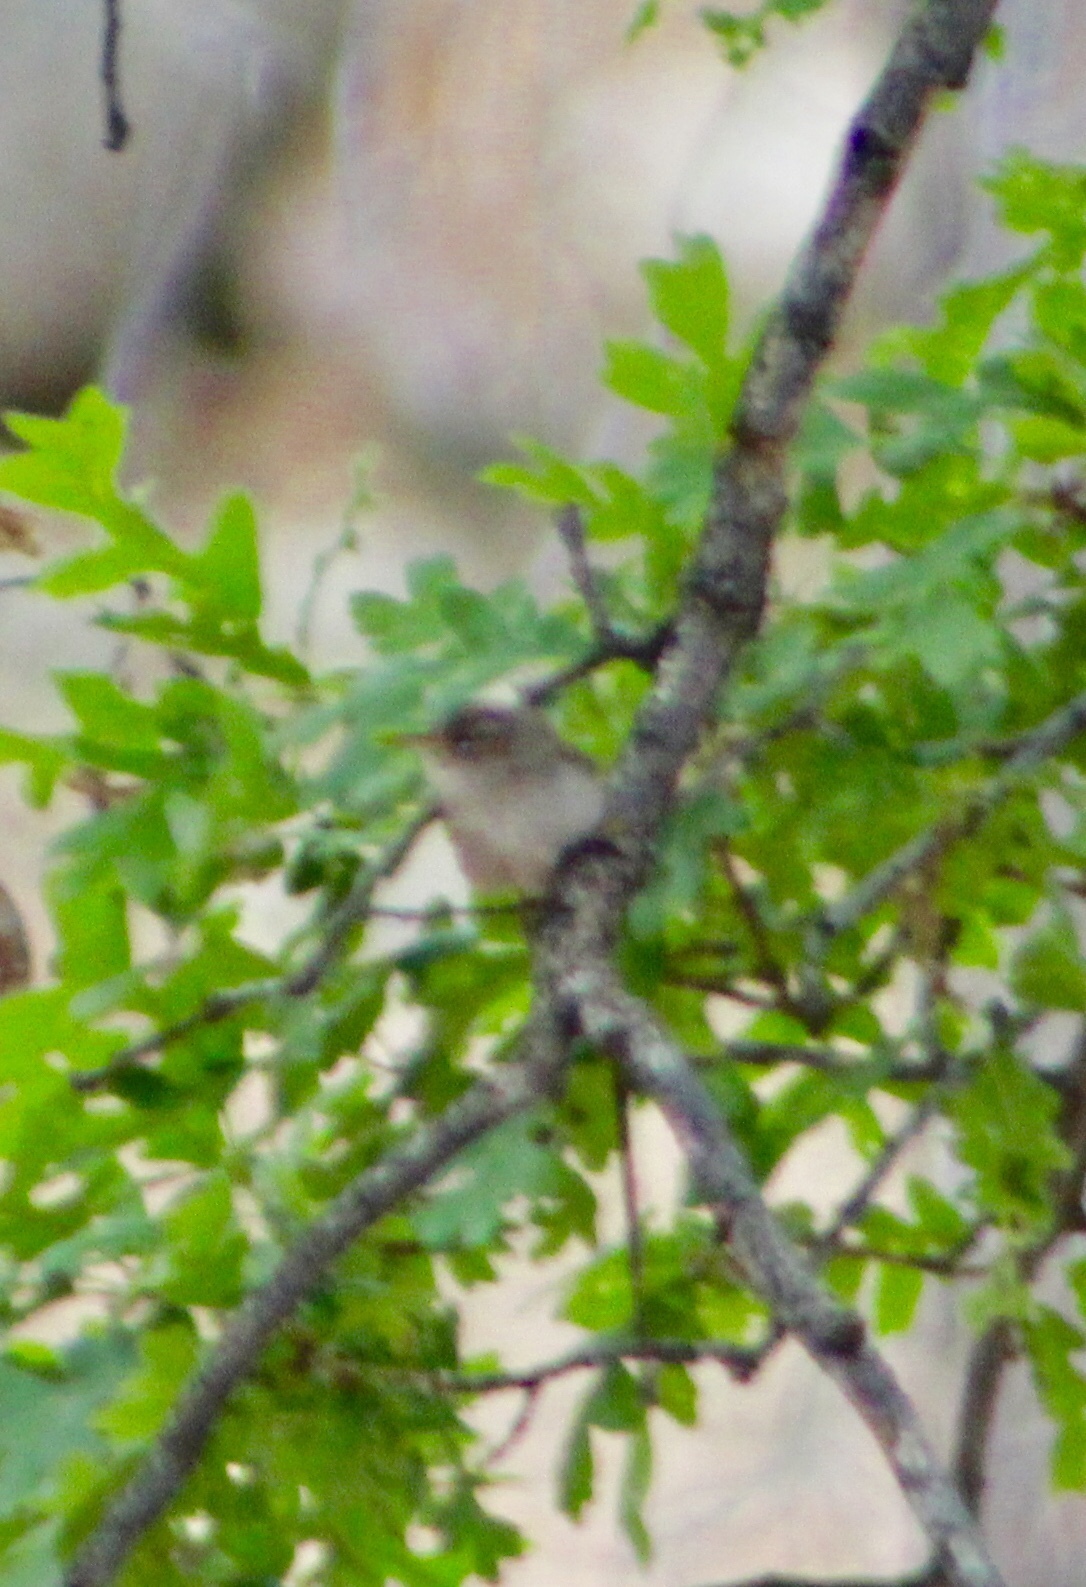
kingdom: Animalia
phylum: Chordata
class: Aves
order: Passeriformes
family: Troglodytidae
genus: Troglodytes
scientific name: Troglodytes aedon
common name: House wren
